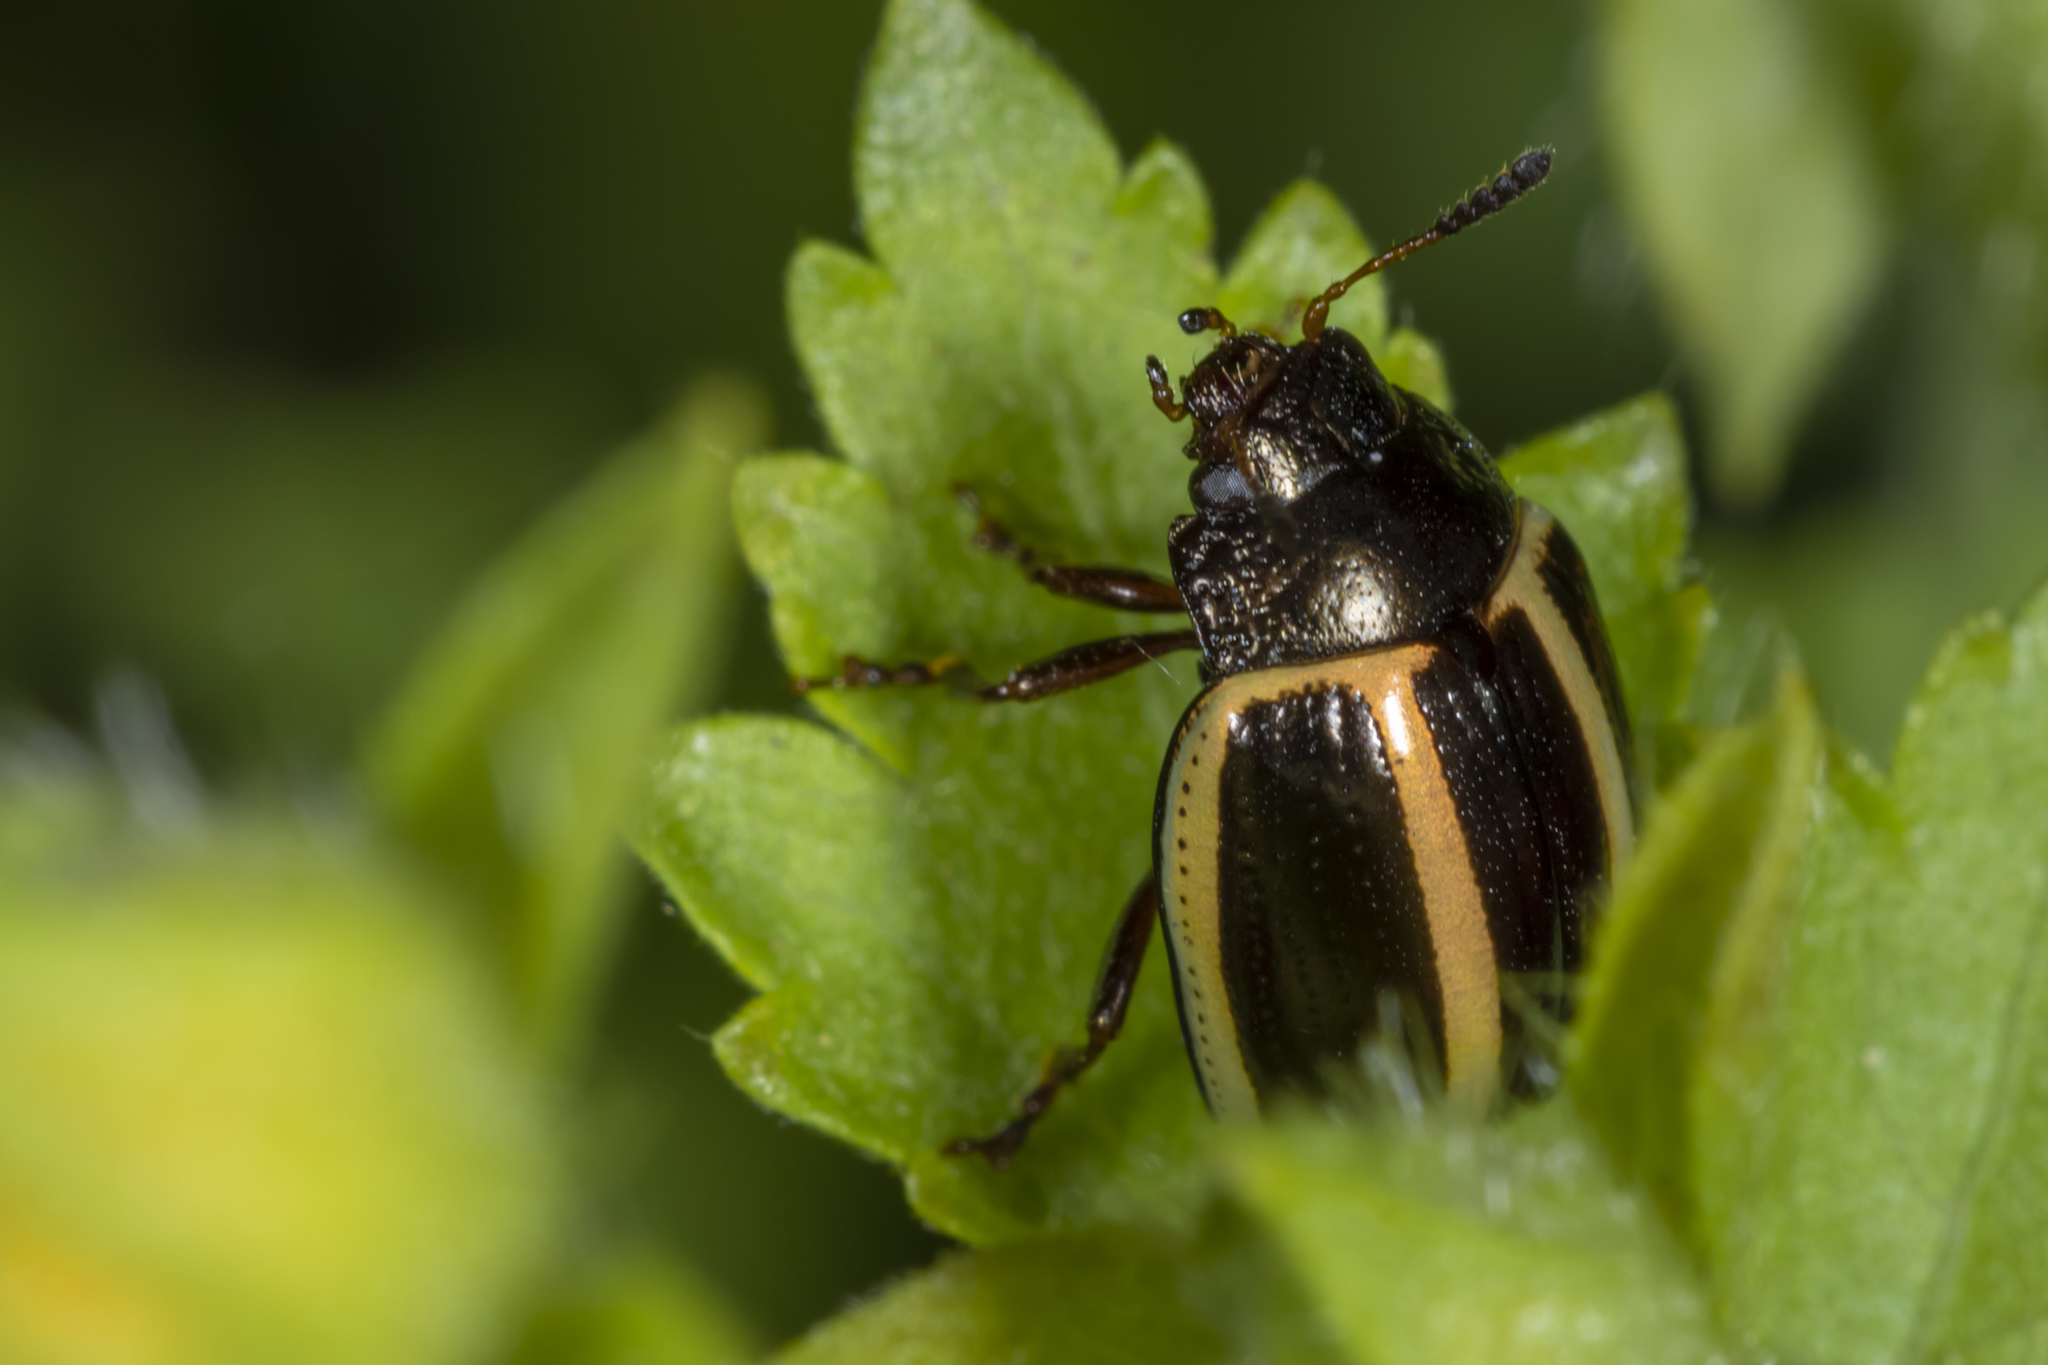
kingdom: Animalia
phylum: Arthropoda
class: Insecta
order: Coleoptera
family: Chrysomelidae
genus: Desmogramma
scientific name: Desmogramma
